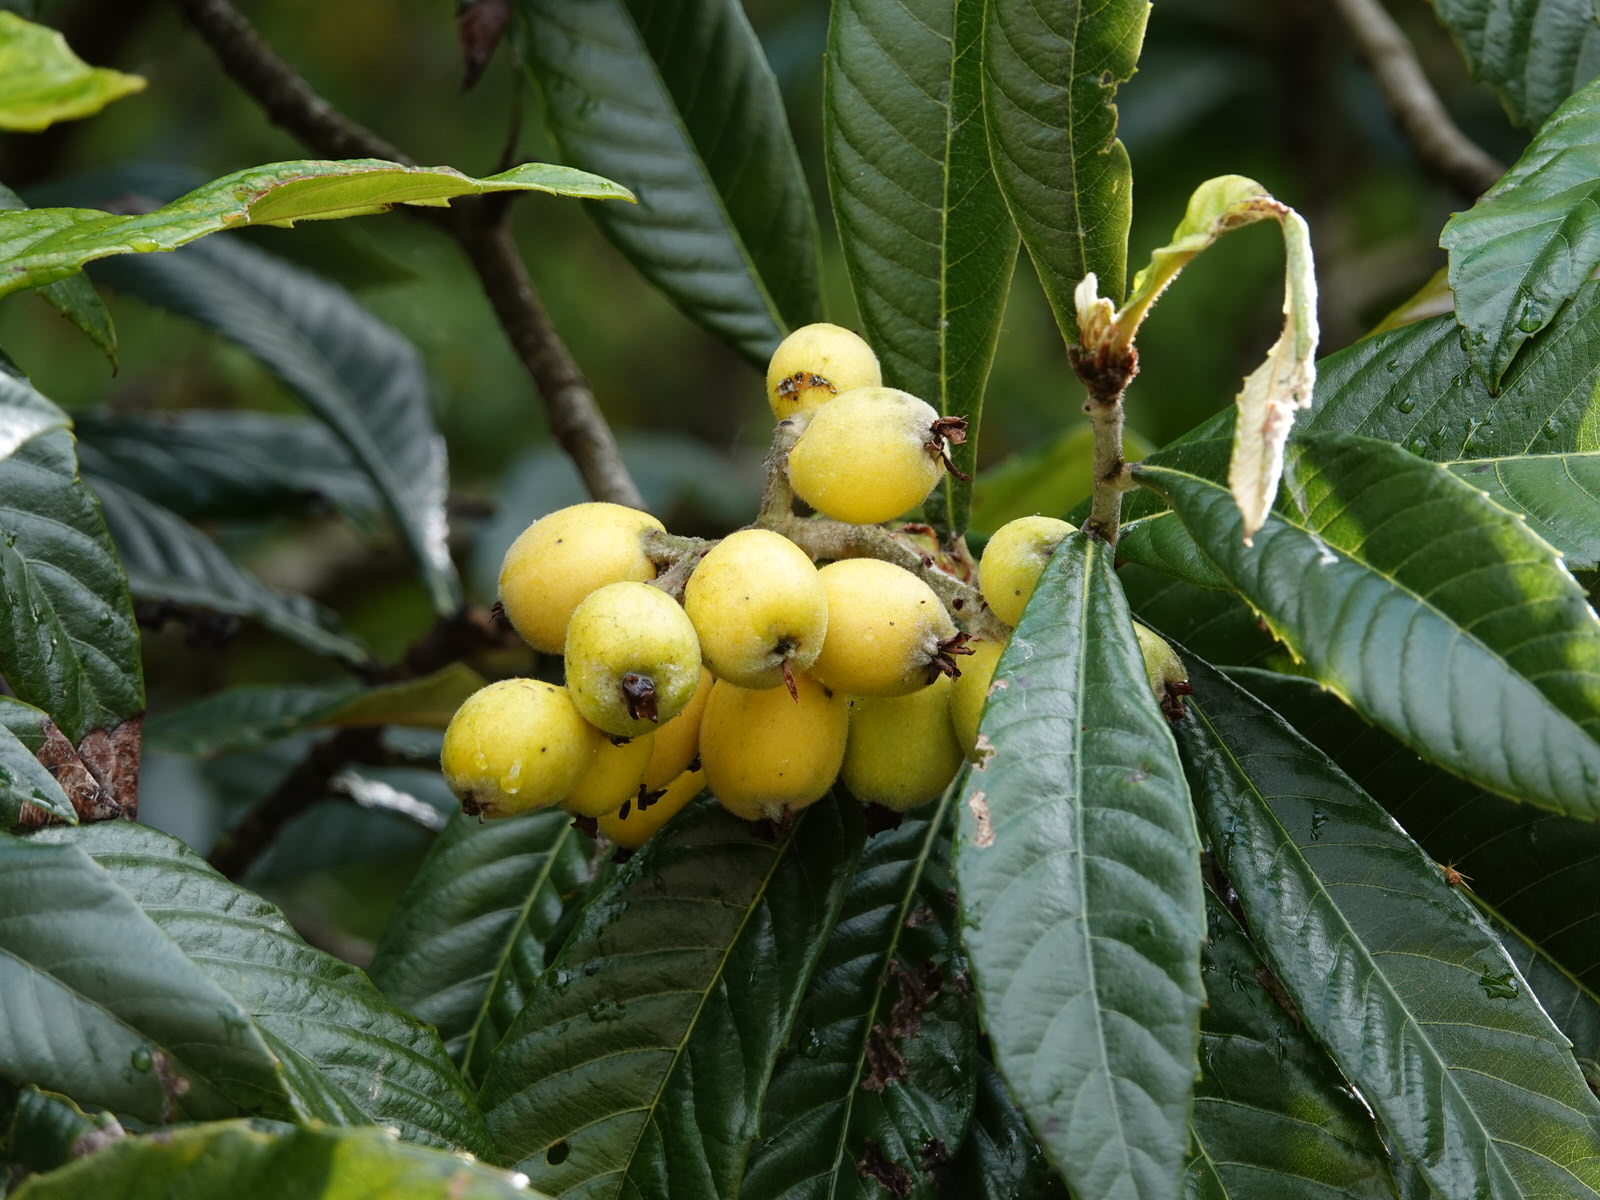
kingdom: Plantae
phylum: Tracheophyta
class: Magnoliopsida
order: Rosales
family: Rosaceae
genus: Rhaphiolepis
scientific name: Rhaphiolepis bibas
